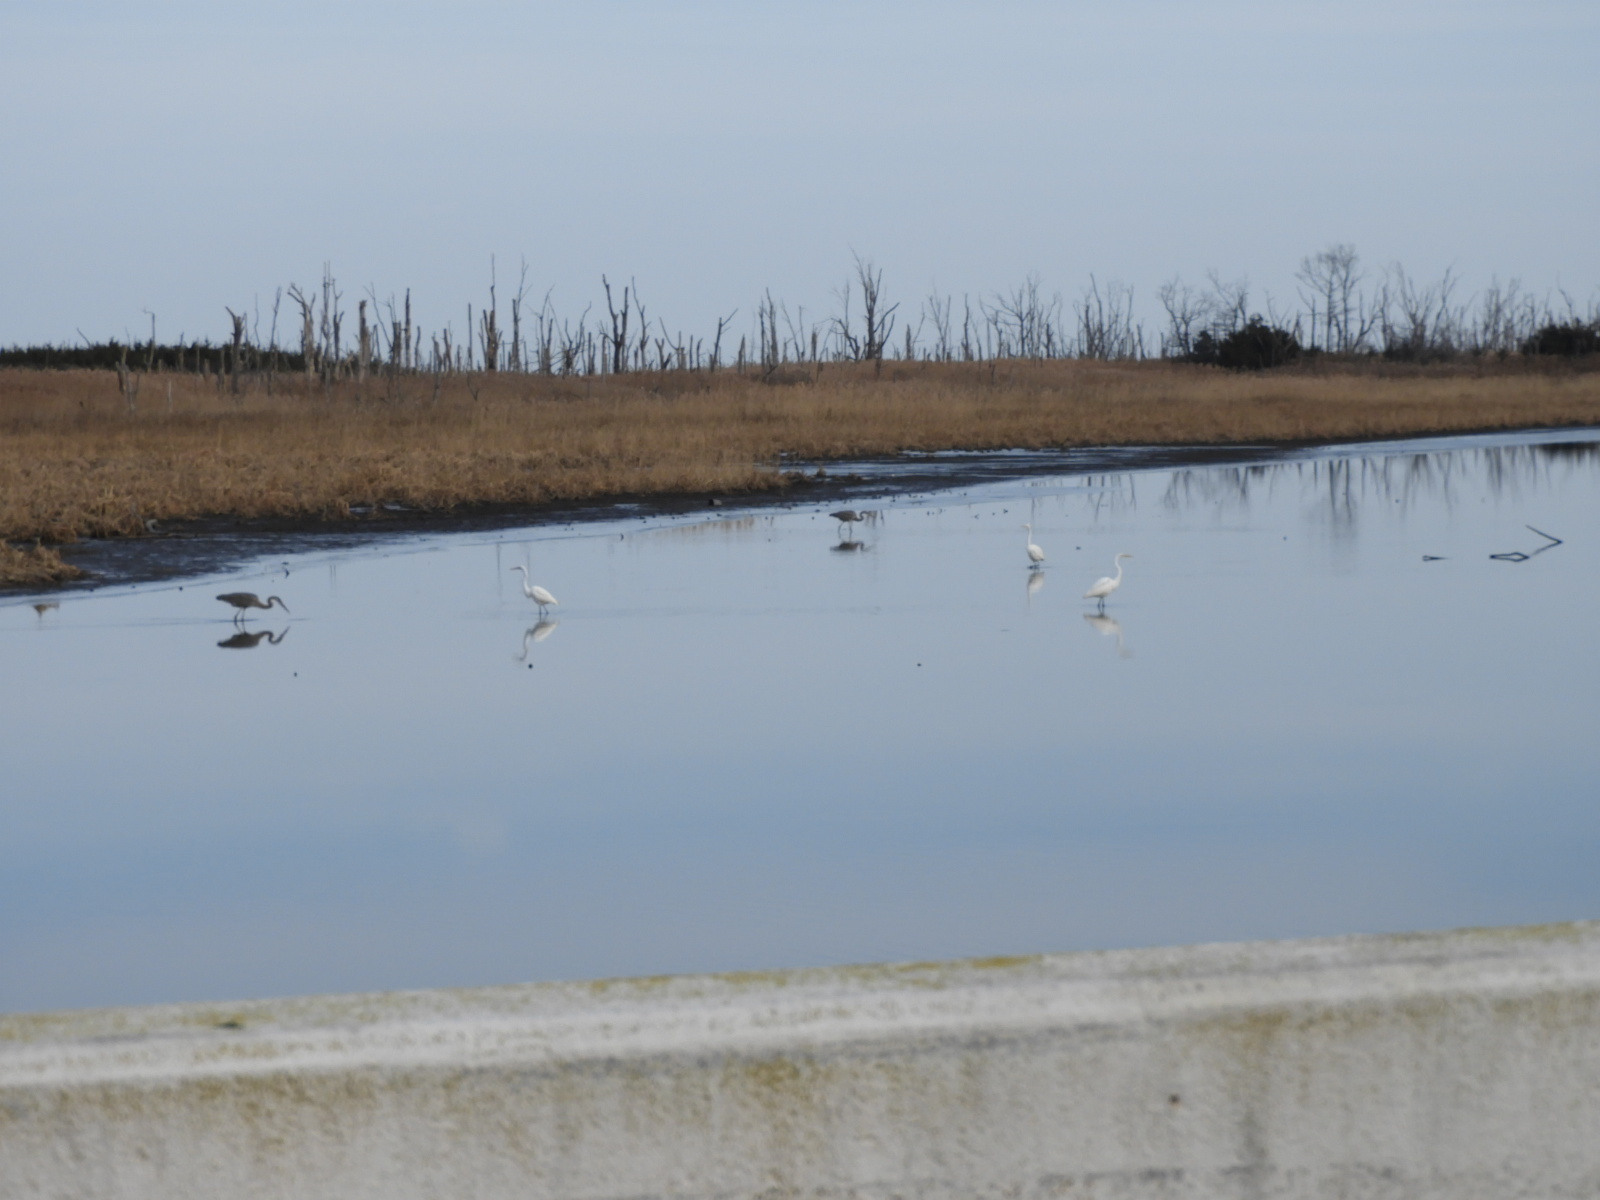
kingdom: Animalia
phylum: Chordata
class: Aves
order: Pelecaniformes
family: Ardeidae
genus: Ardea
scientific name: Ardea alba
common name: Great egret
